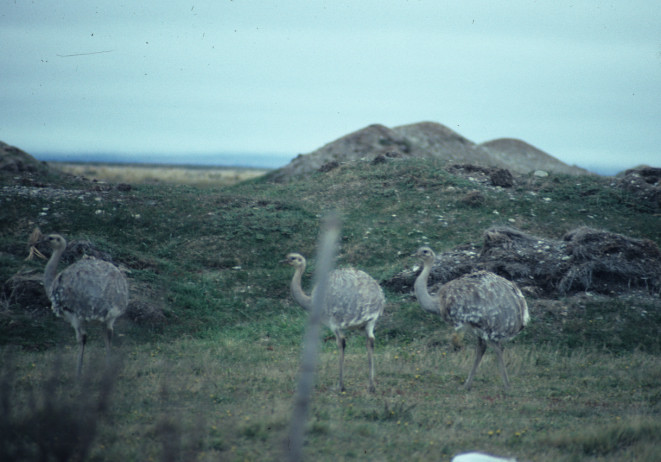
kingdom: Animalia
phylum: Chordata
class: Aves
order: Rheiformes
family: Rheidae
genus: Rhea
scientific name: Rhea pennata
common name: Lesser rhea
